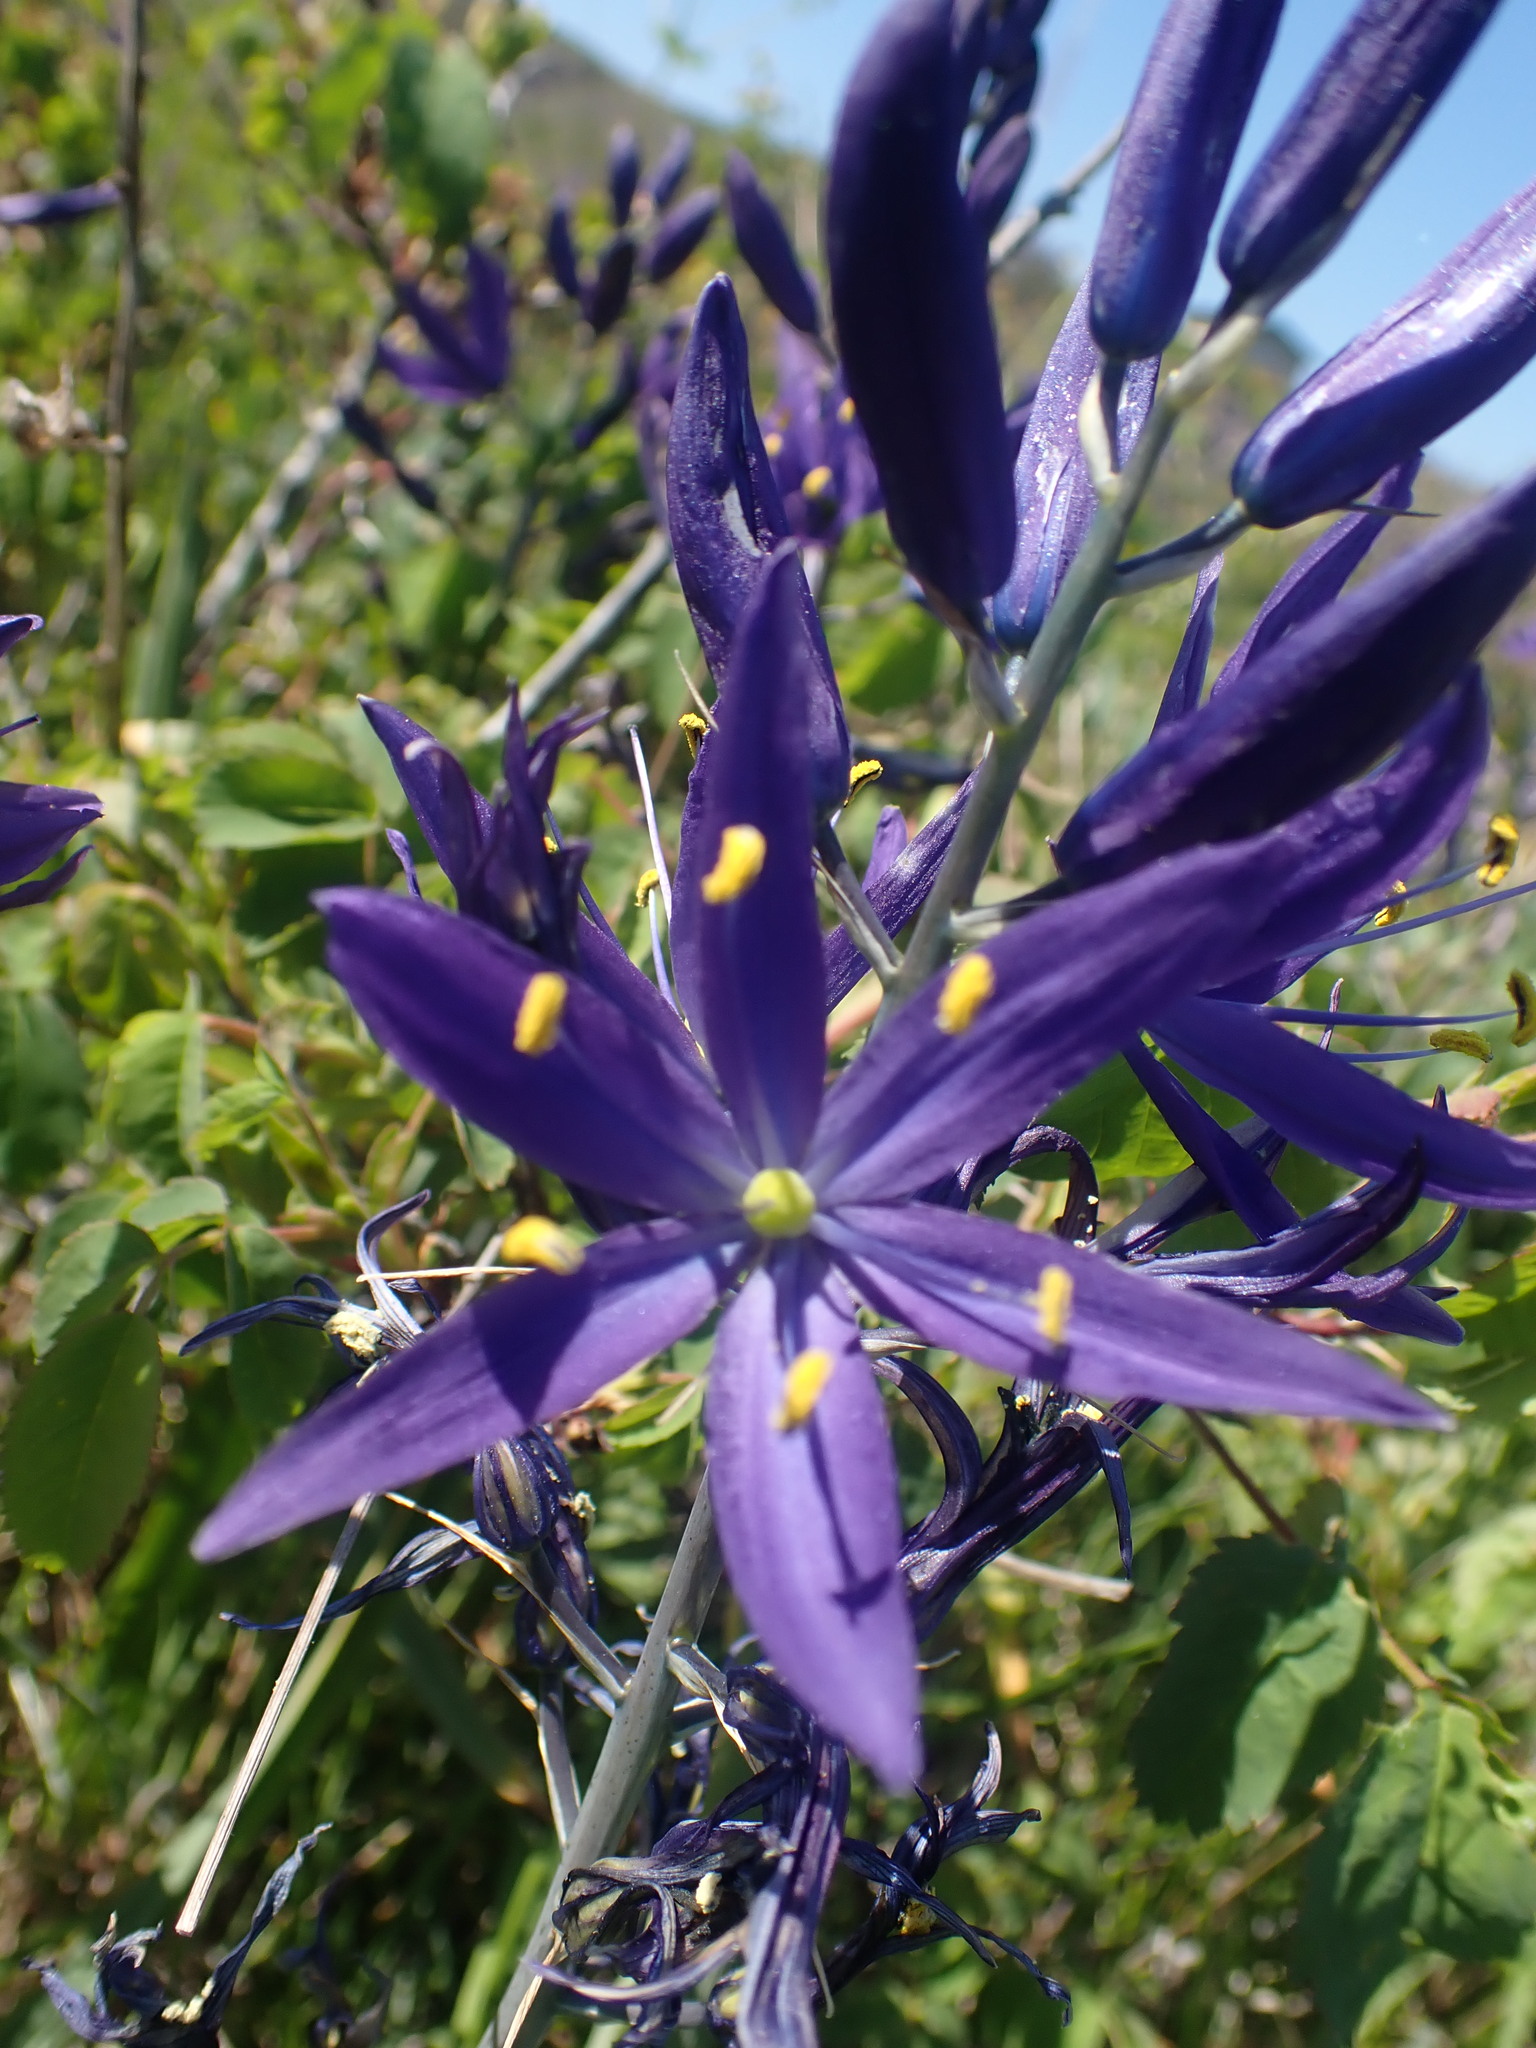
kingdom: Plantae
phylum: Tracheophyta
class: Liliopsida
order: Asparagales
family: Asparagaceae
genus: Camassia
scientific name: Camassia leichtlinii
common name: Leichtlin's camas
